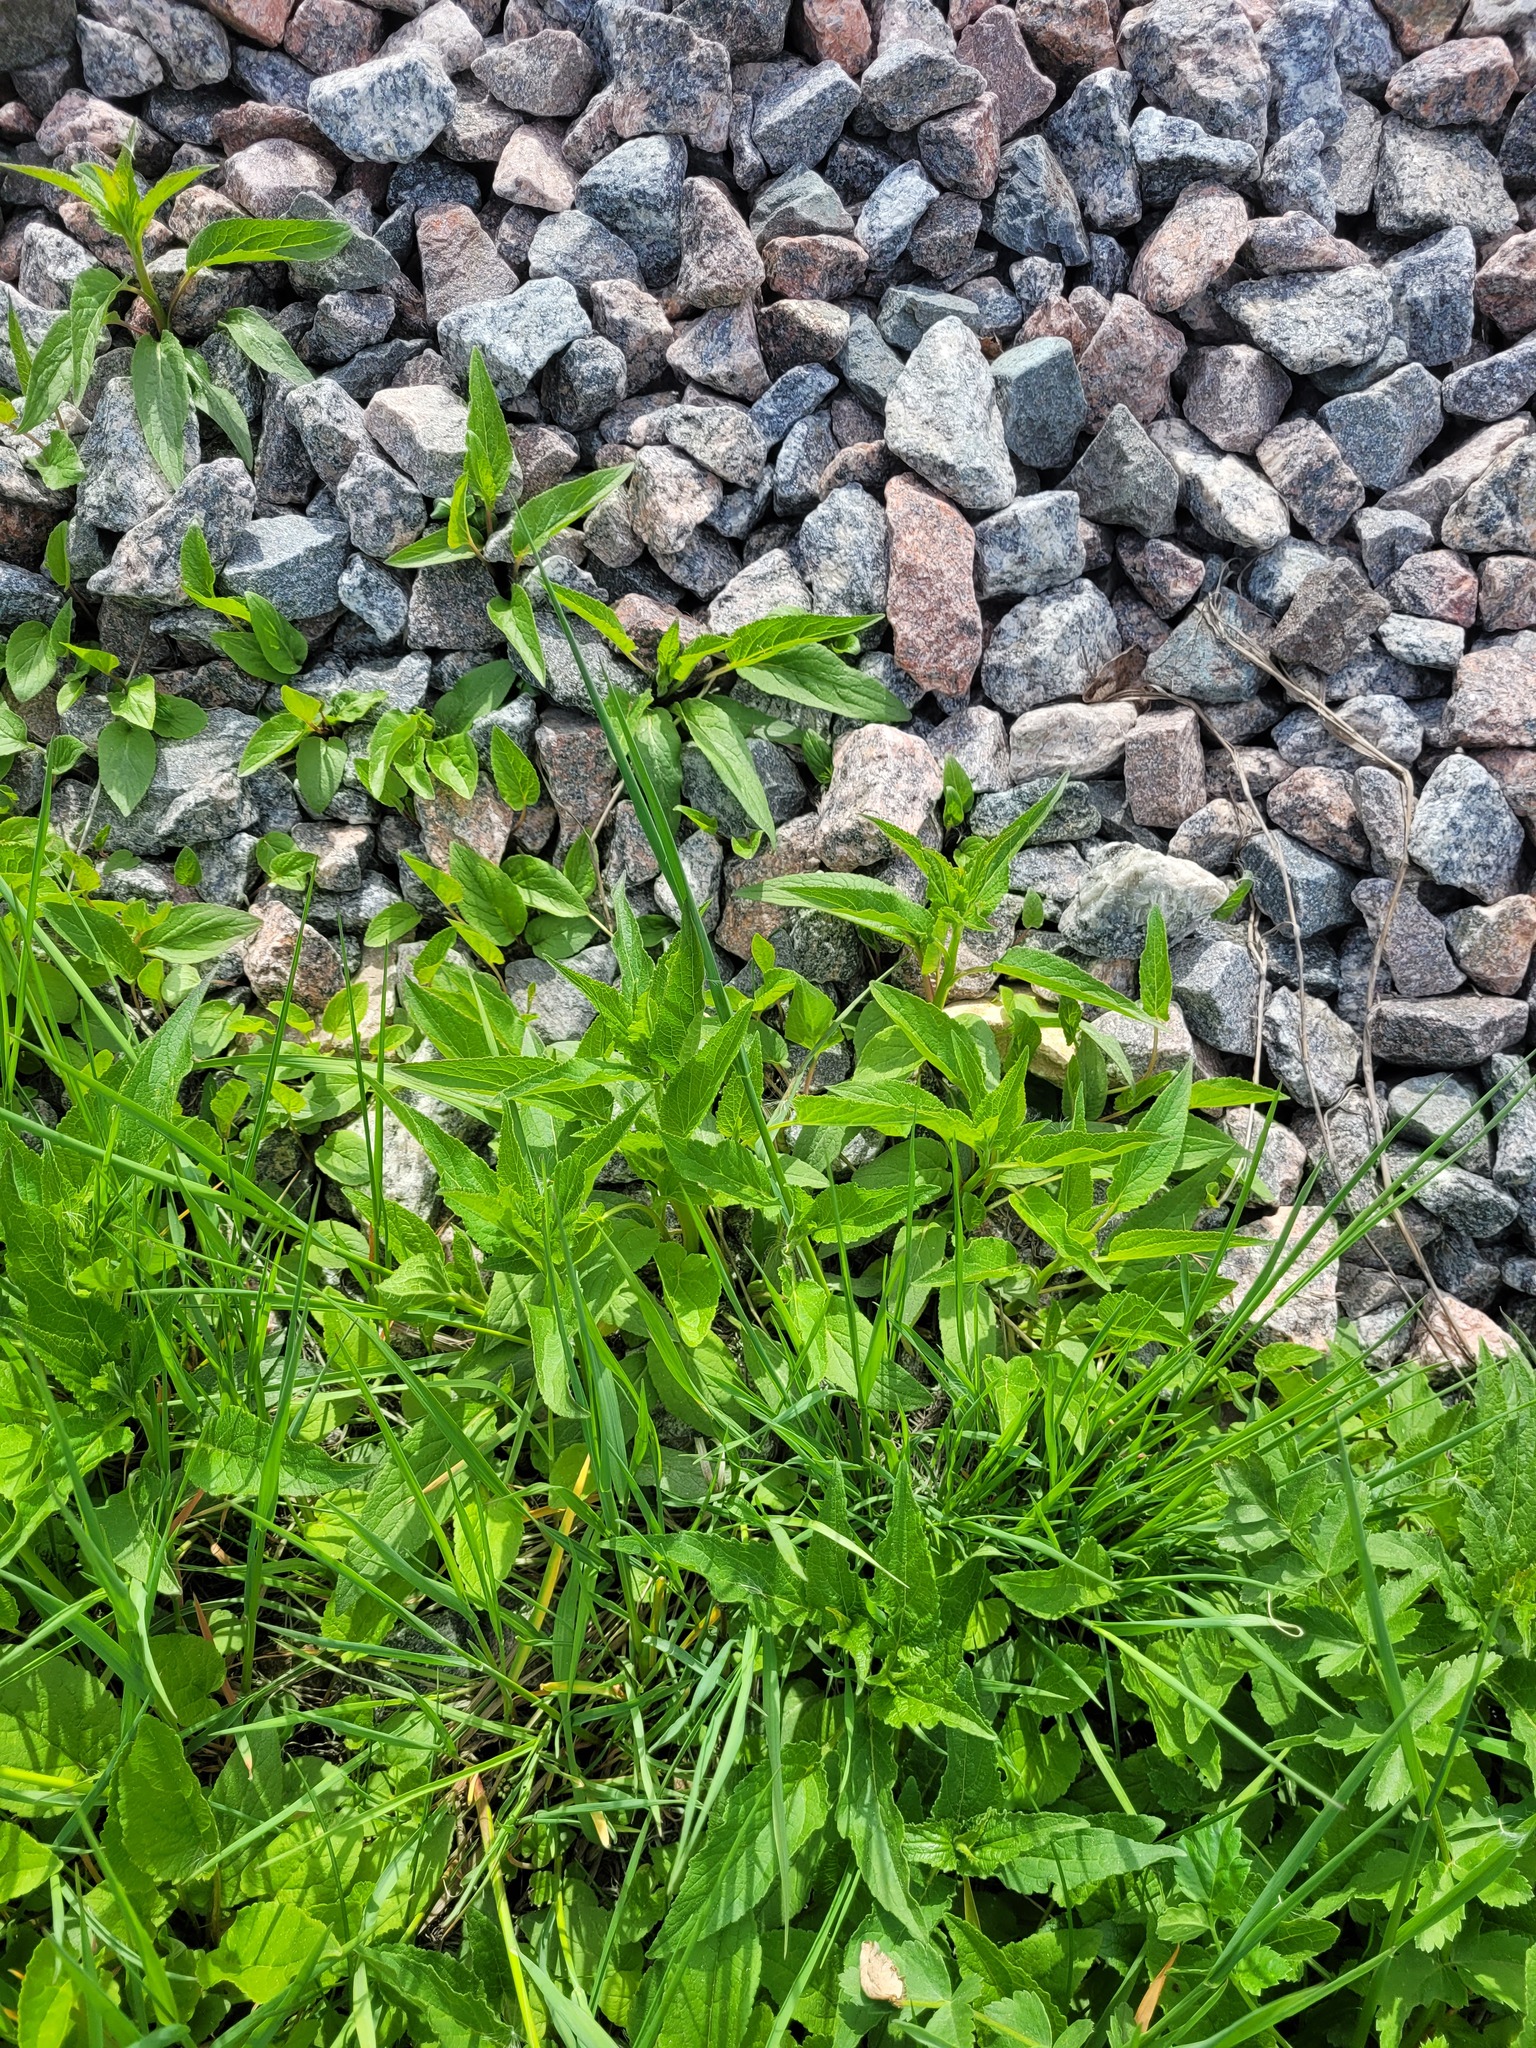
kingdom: Plantae
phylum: Tracheophyta
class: Magnoliopsida
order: Asterales
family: Campanulaceae
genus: Campanula
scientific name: Campanula rapunculoides
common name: Creeping bellflower
